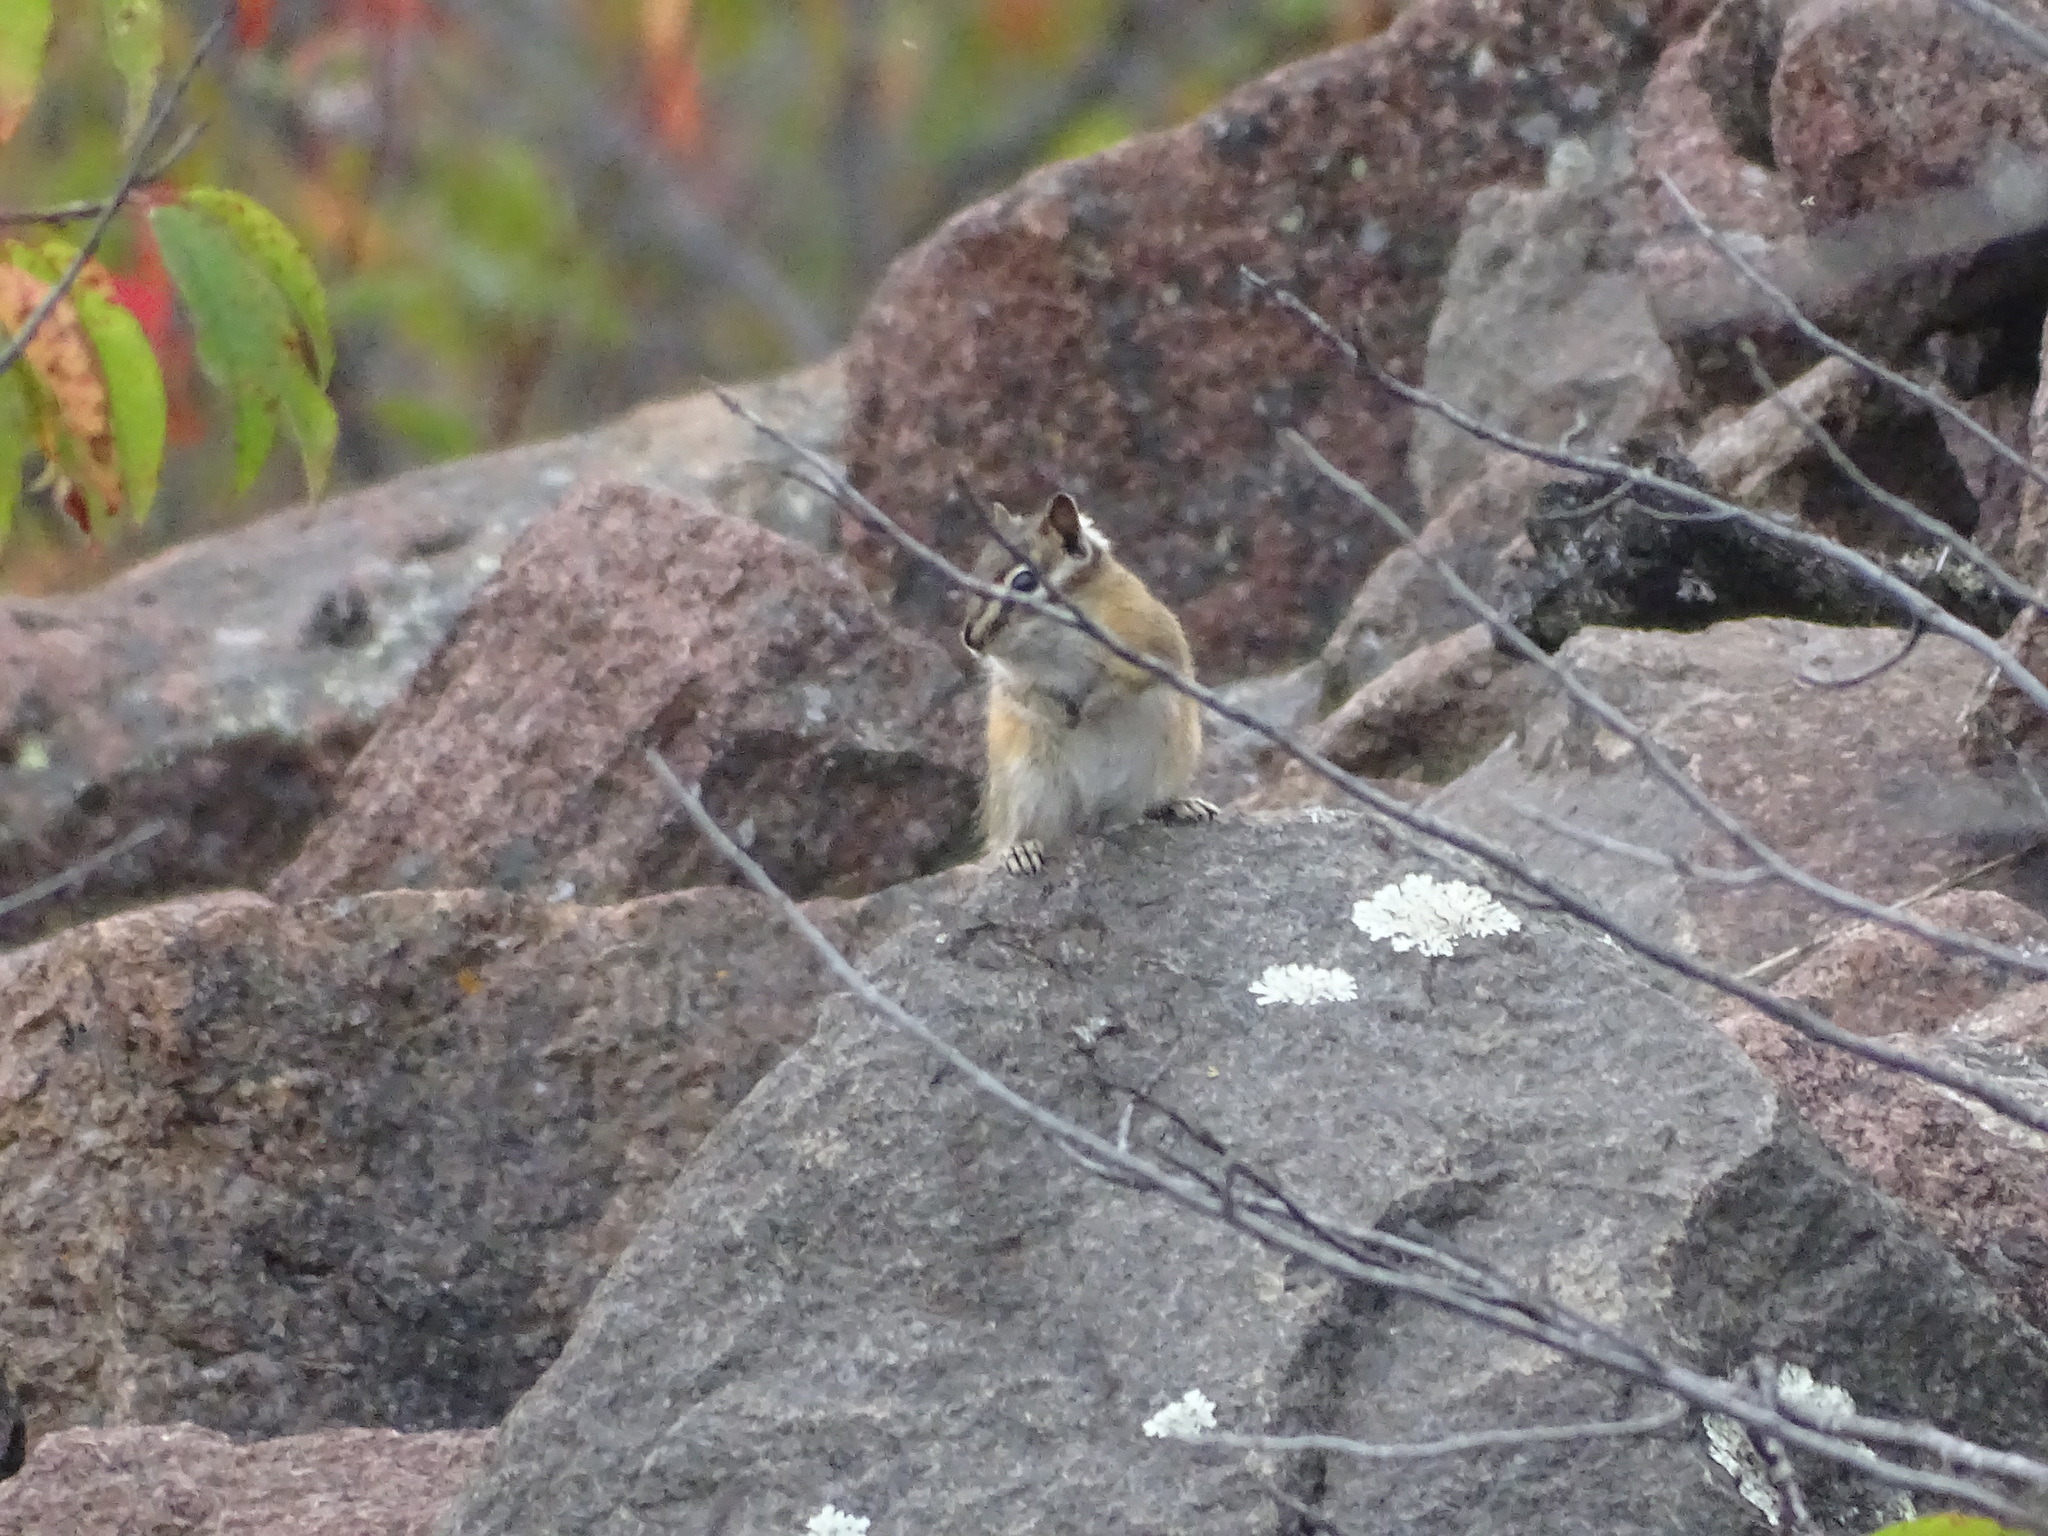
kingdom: Animalia
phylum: Chordata
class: Mammalia
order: Rodentia
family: Sciuridae
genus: Tamias
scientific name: Tamias minimus
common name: Least chipmunk
